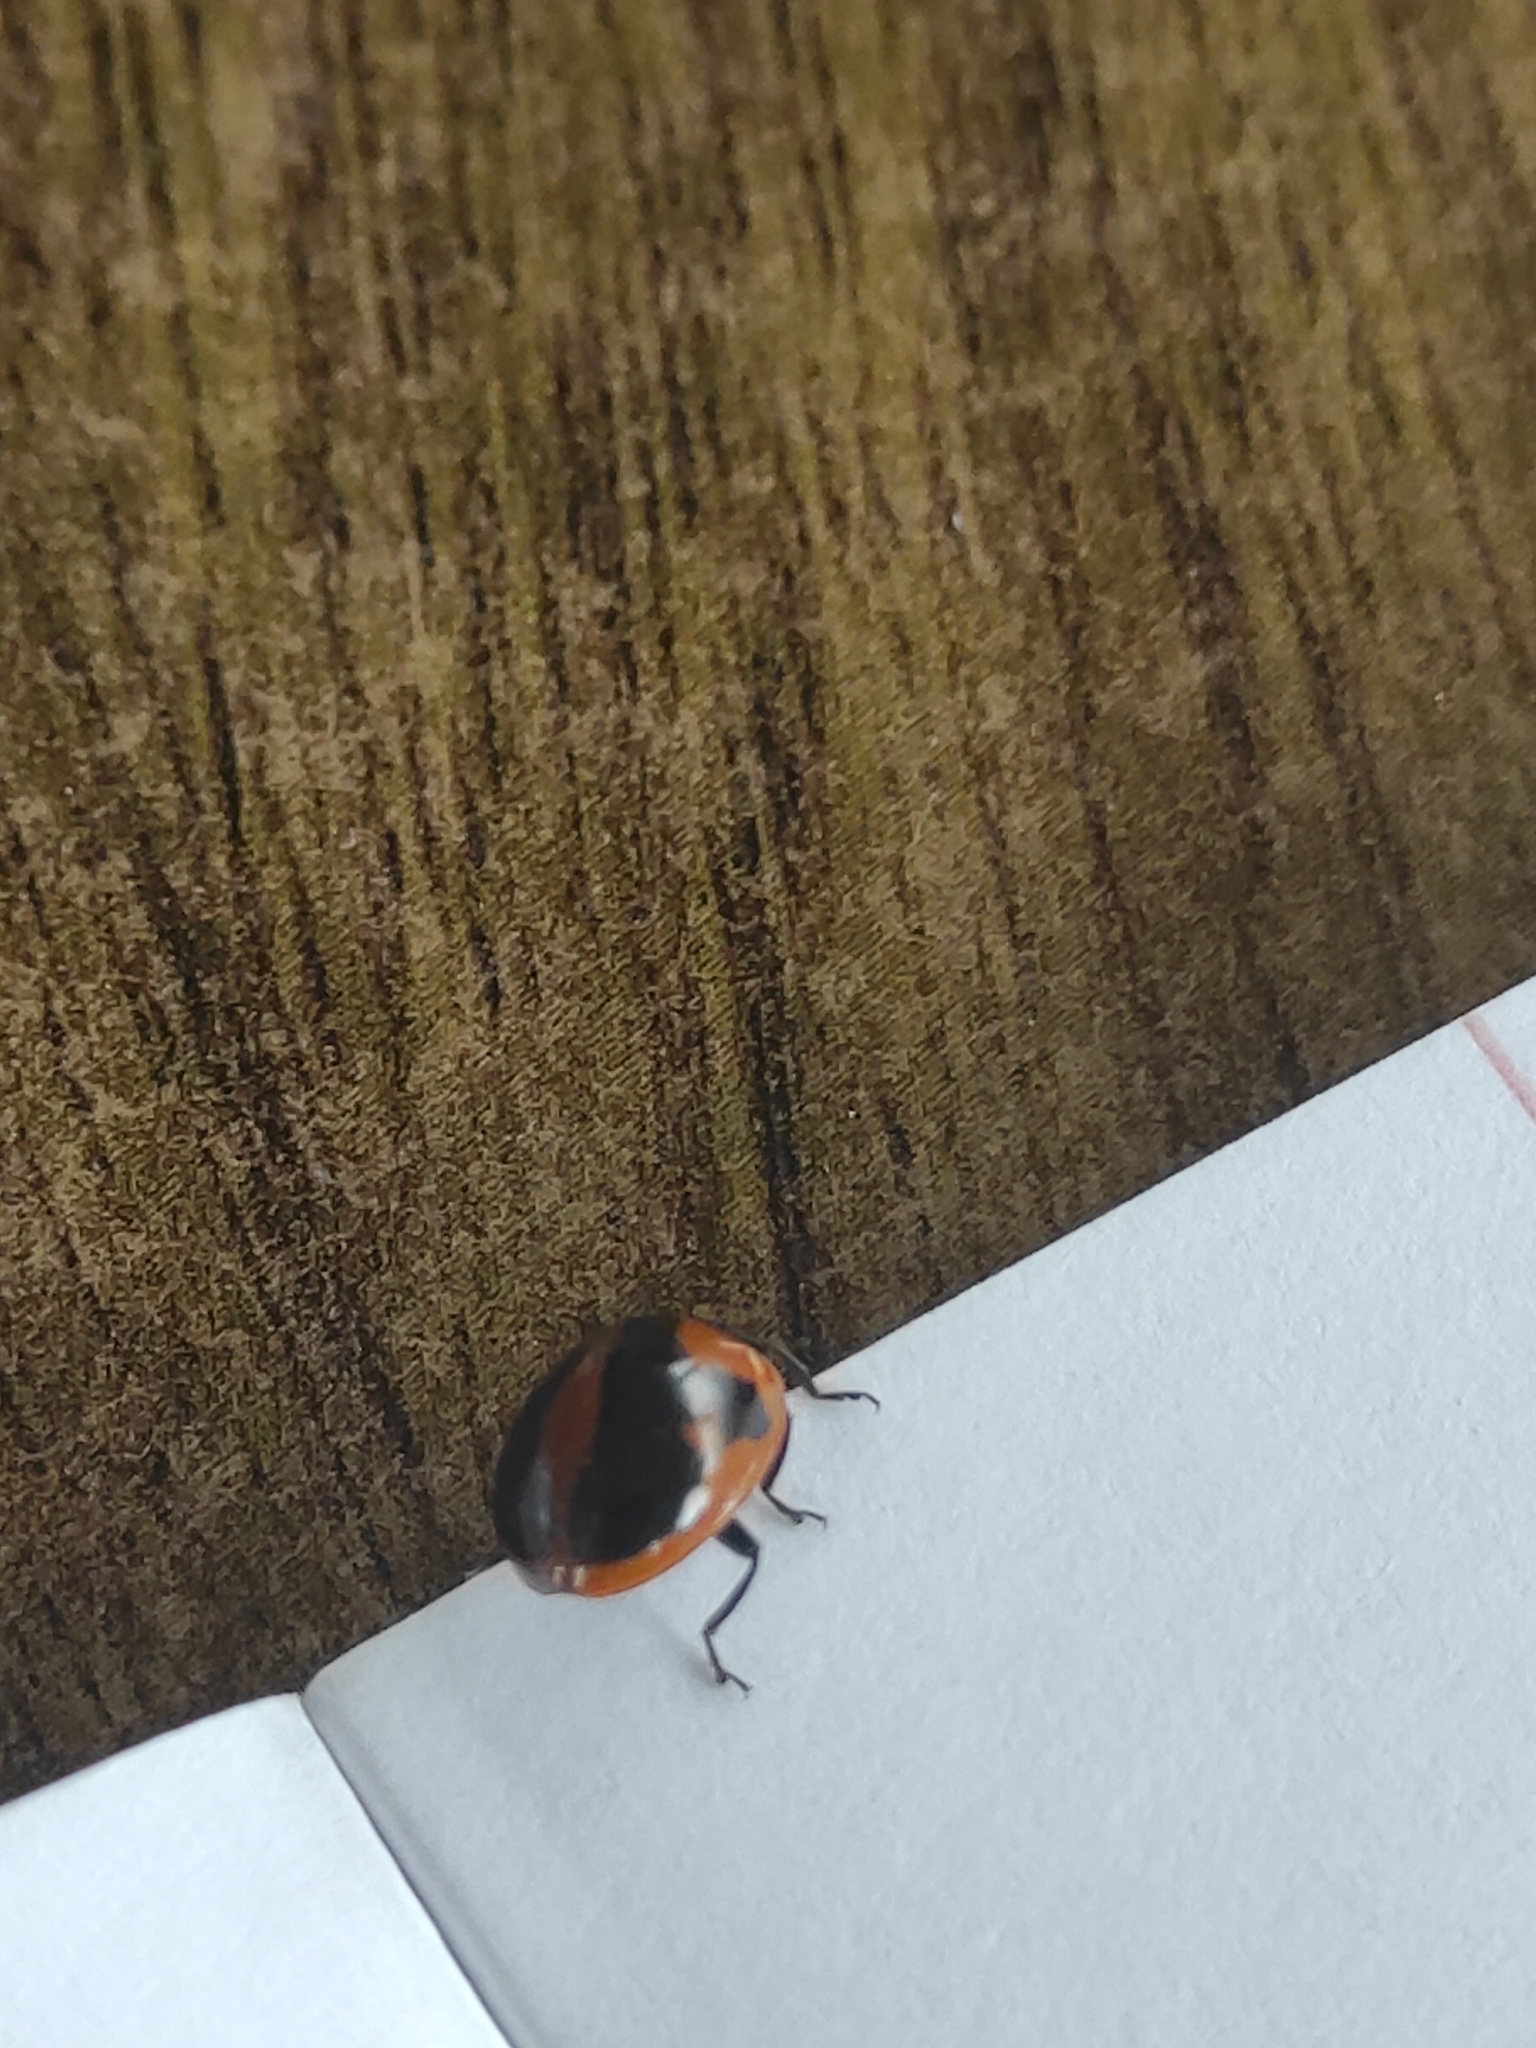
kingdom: Animalia
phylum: Arthropoda
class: Insecta
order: Coleoptera
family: Coccinellidae
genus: Coccinella
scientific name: Coccinella septempunctata
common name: Sevenspotted lady beetle
